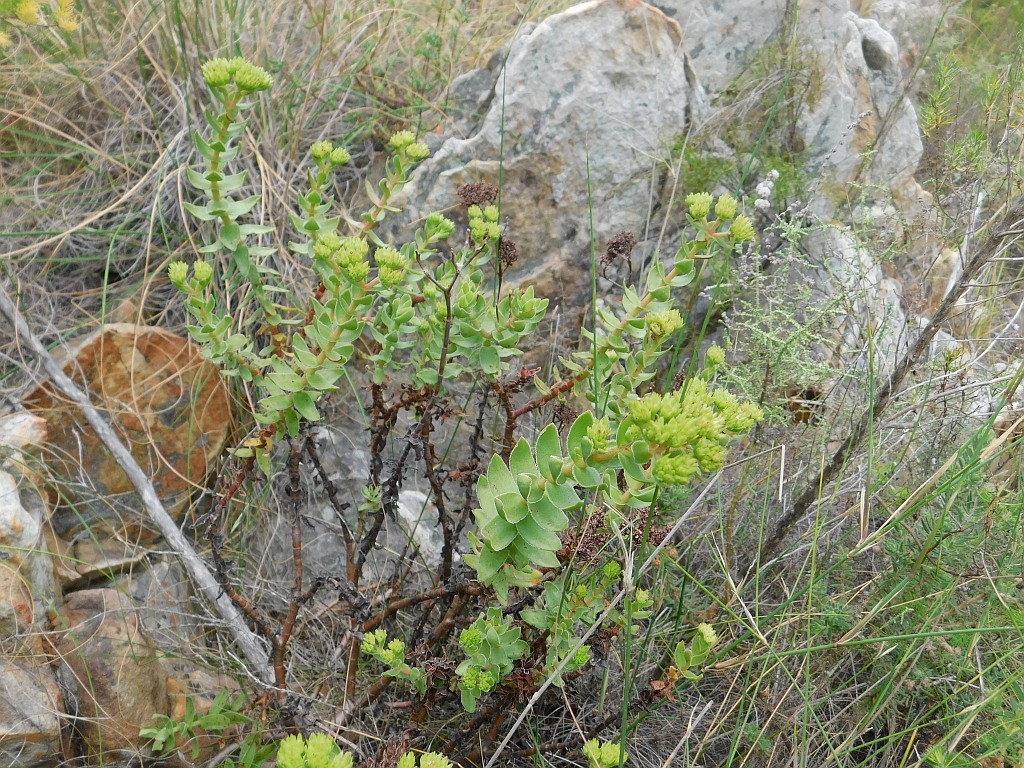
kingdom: Plantae
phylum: Tracheophyta
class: Magnoliopsida
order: Saxifragales
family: Crassulaceae
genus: Crassula
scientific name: Crassula undulata
